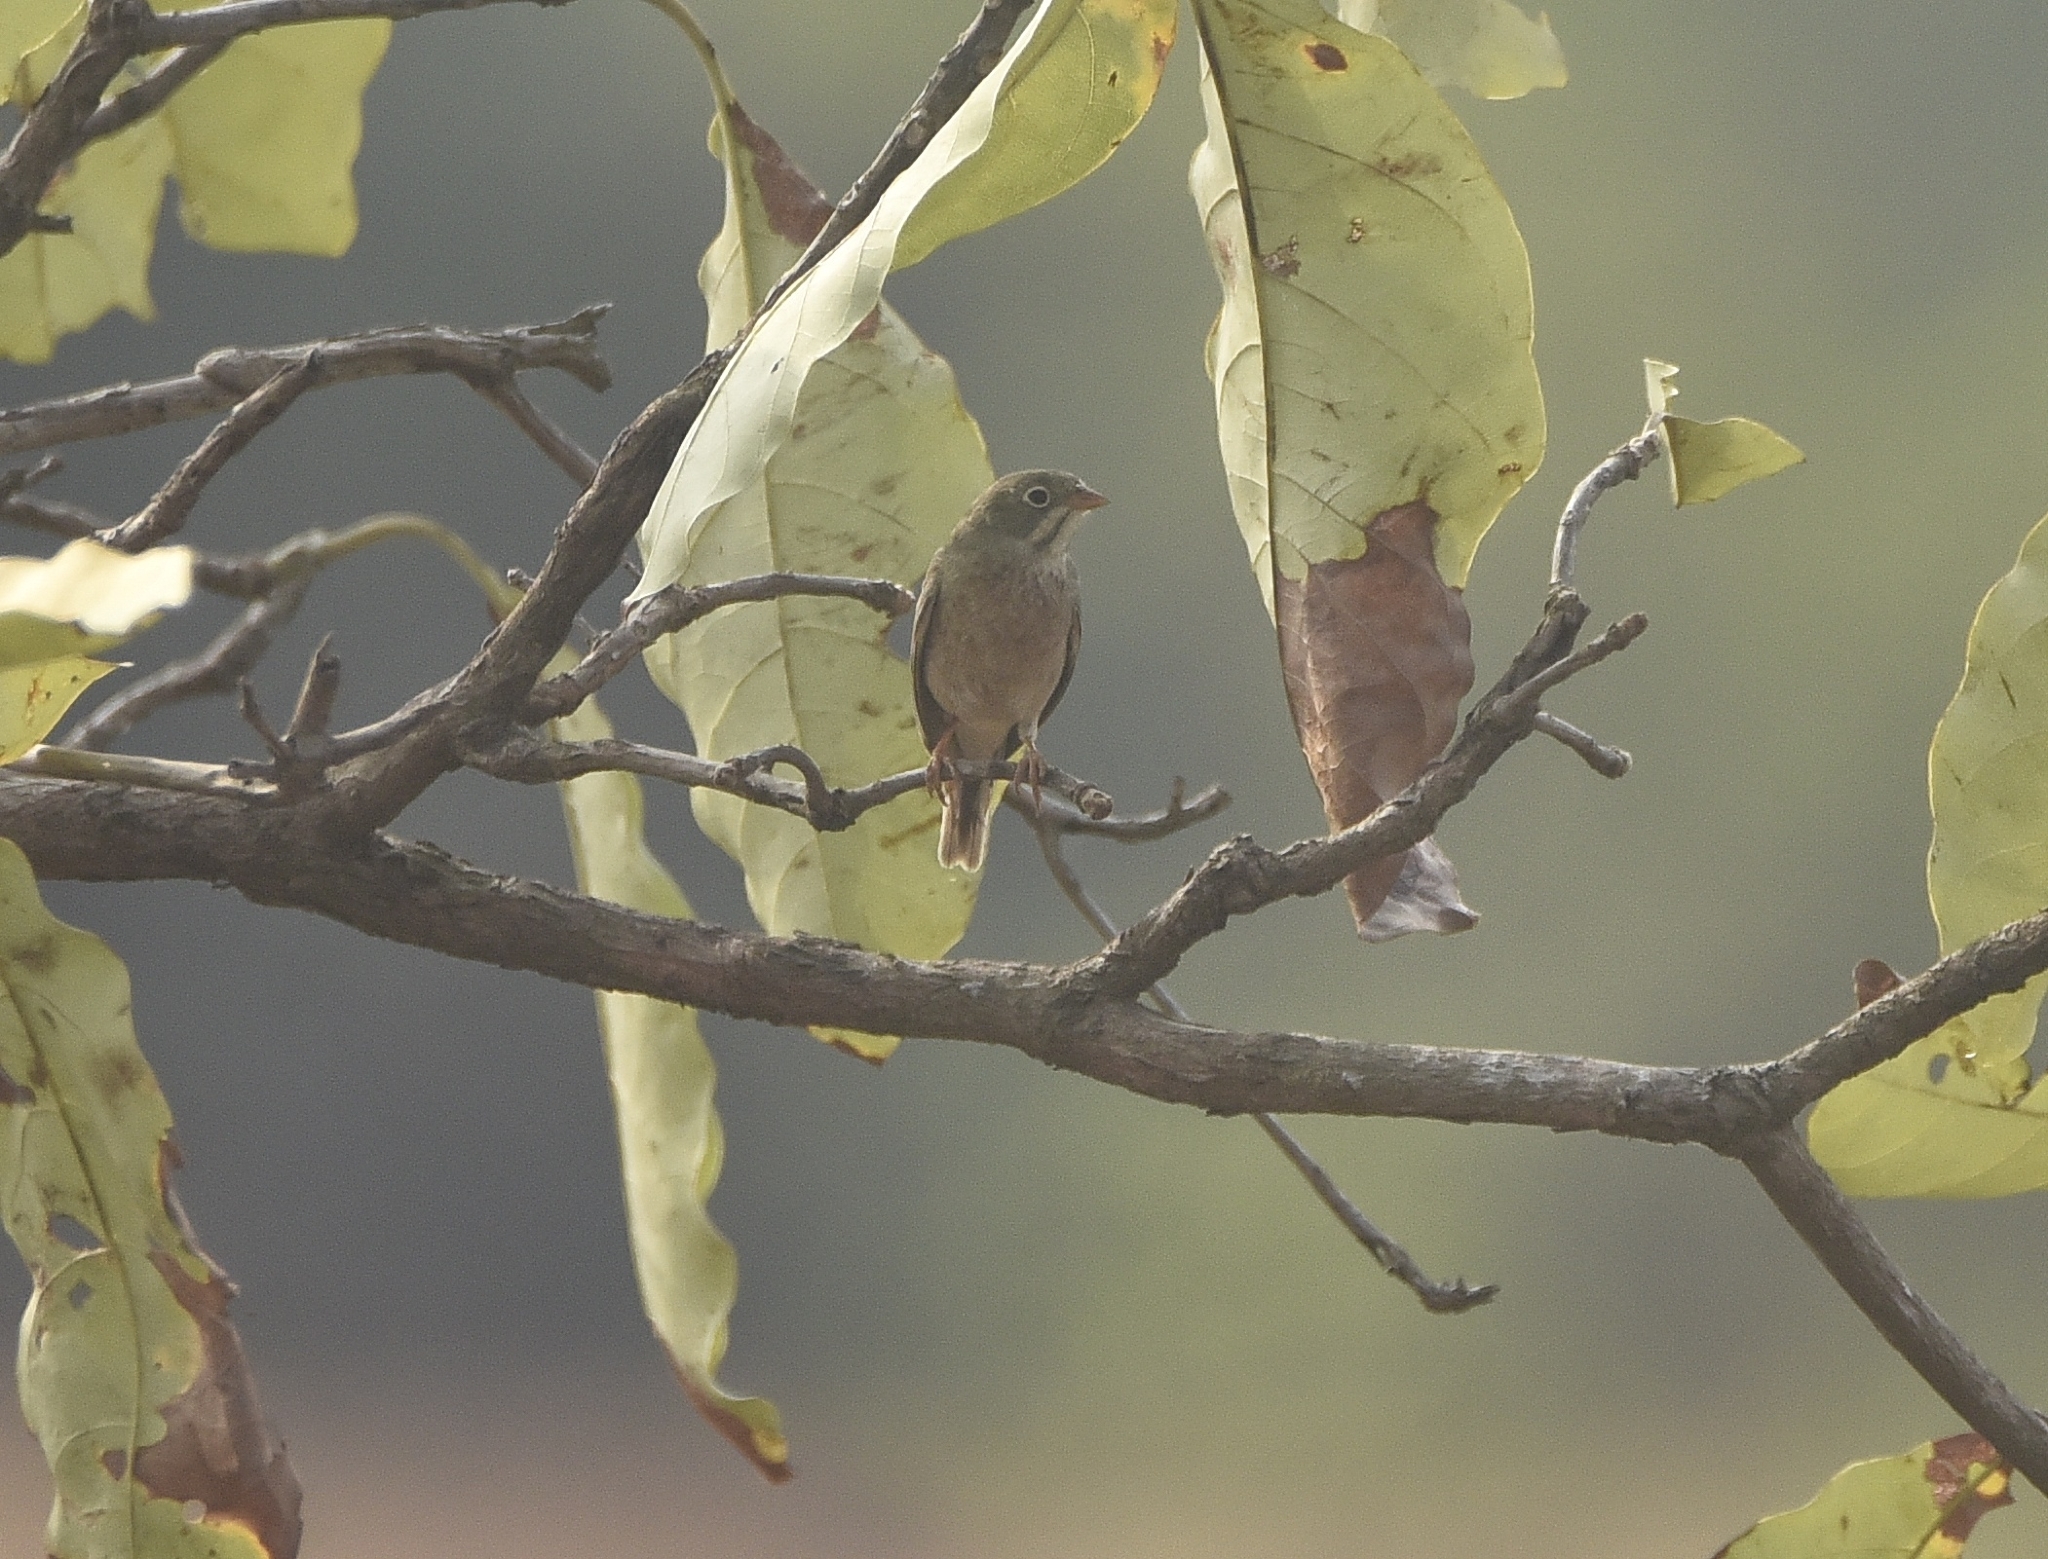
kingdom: Animalia
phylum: Chordata
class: Aves
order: Passeriformes
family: Emberizidae
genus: Emberiza
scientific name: Emberiza buchanani
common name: Grey-necked bunting
